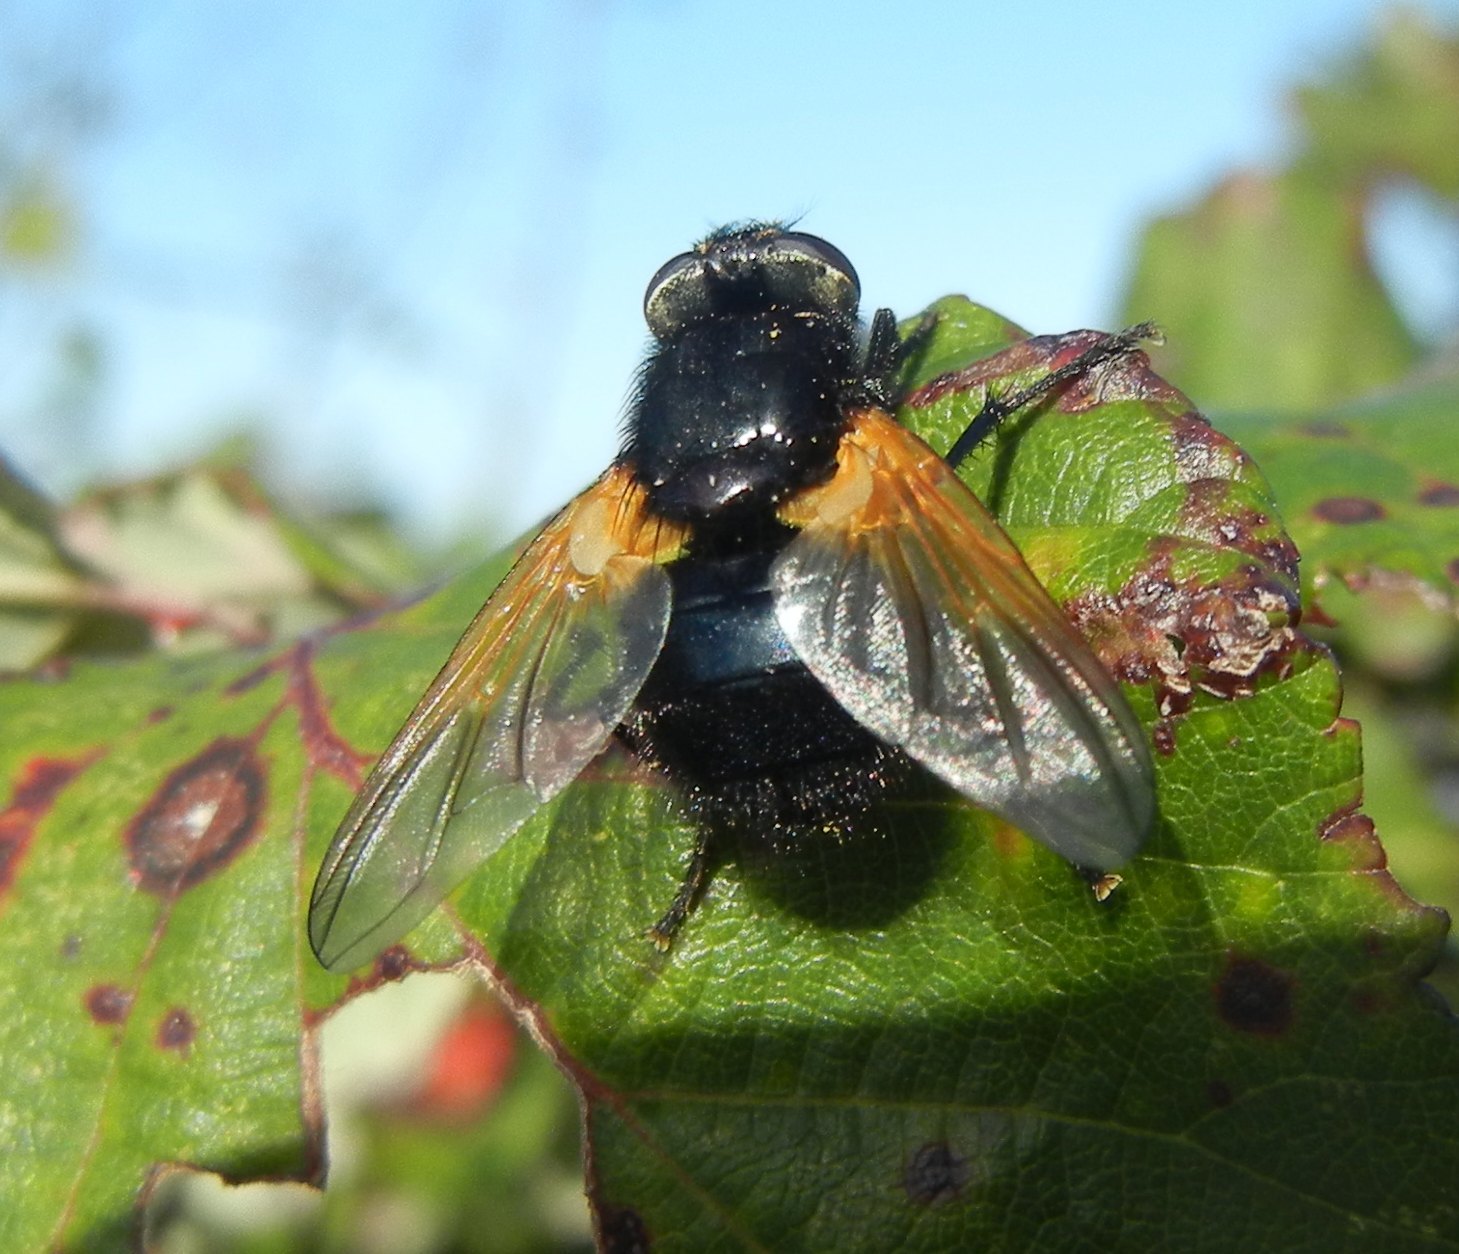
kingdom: Animalia
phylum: Arthropoda
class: Insecta
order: Diptera
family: Muscidae
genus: Mesembrina
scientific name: Mesembrina meridiana
